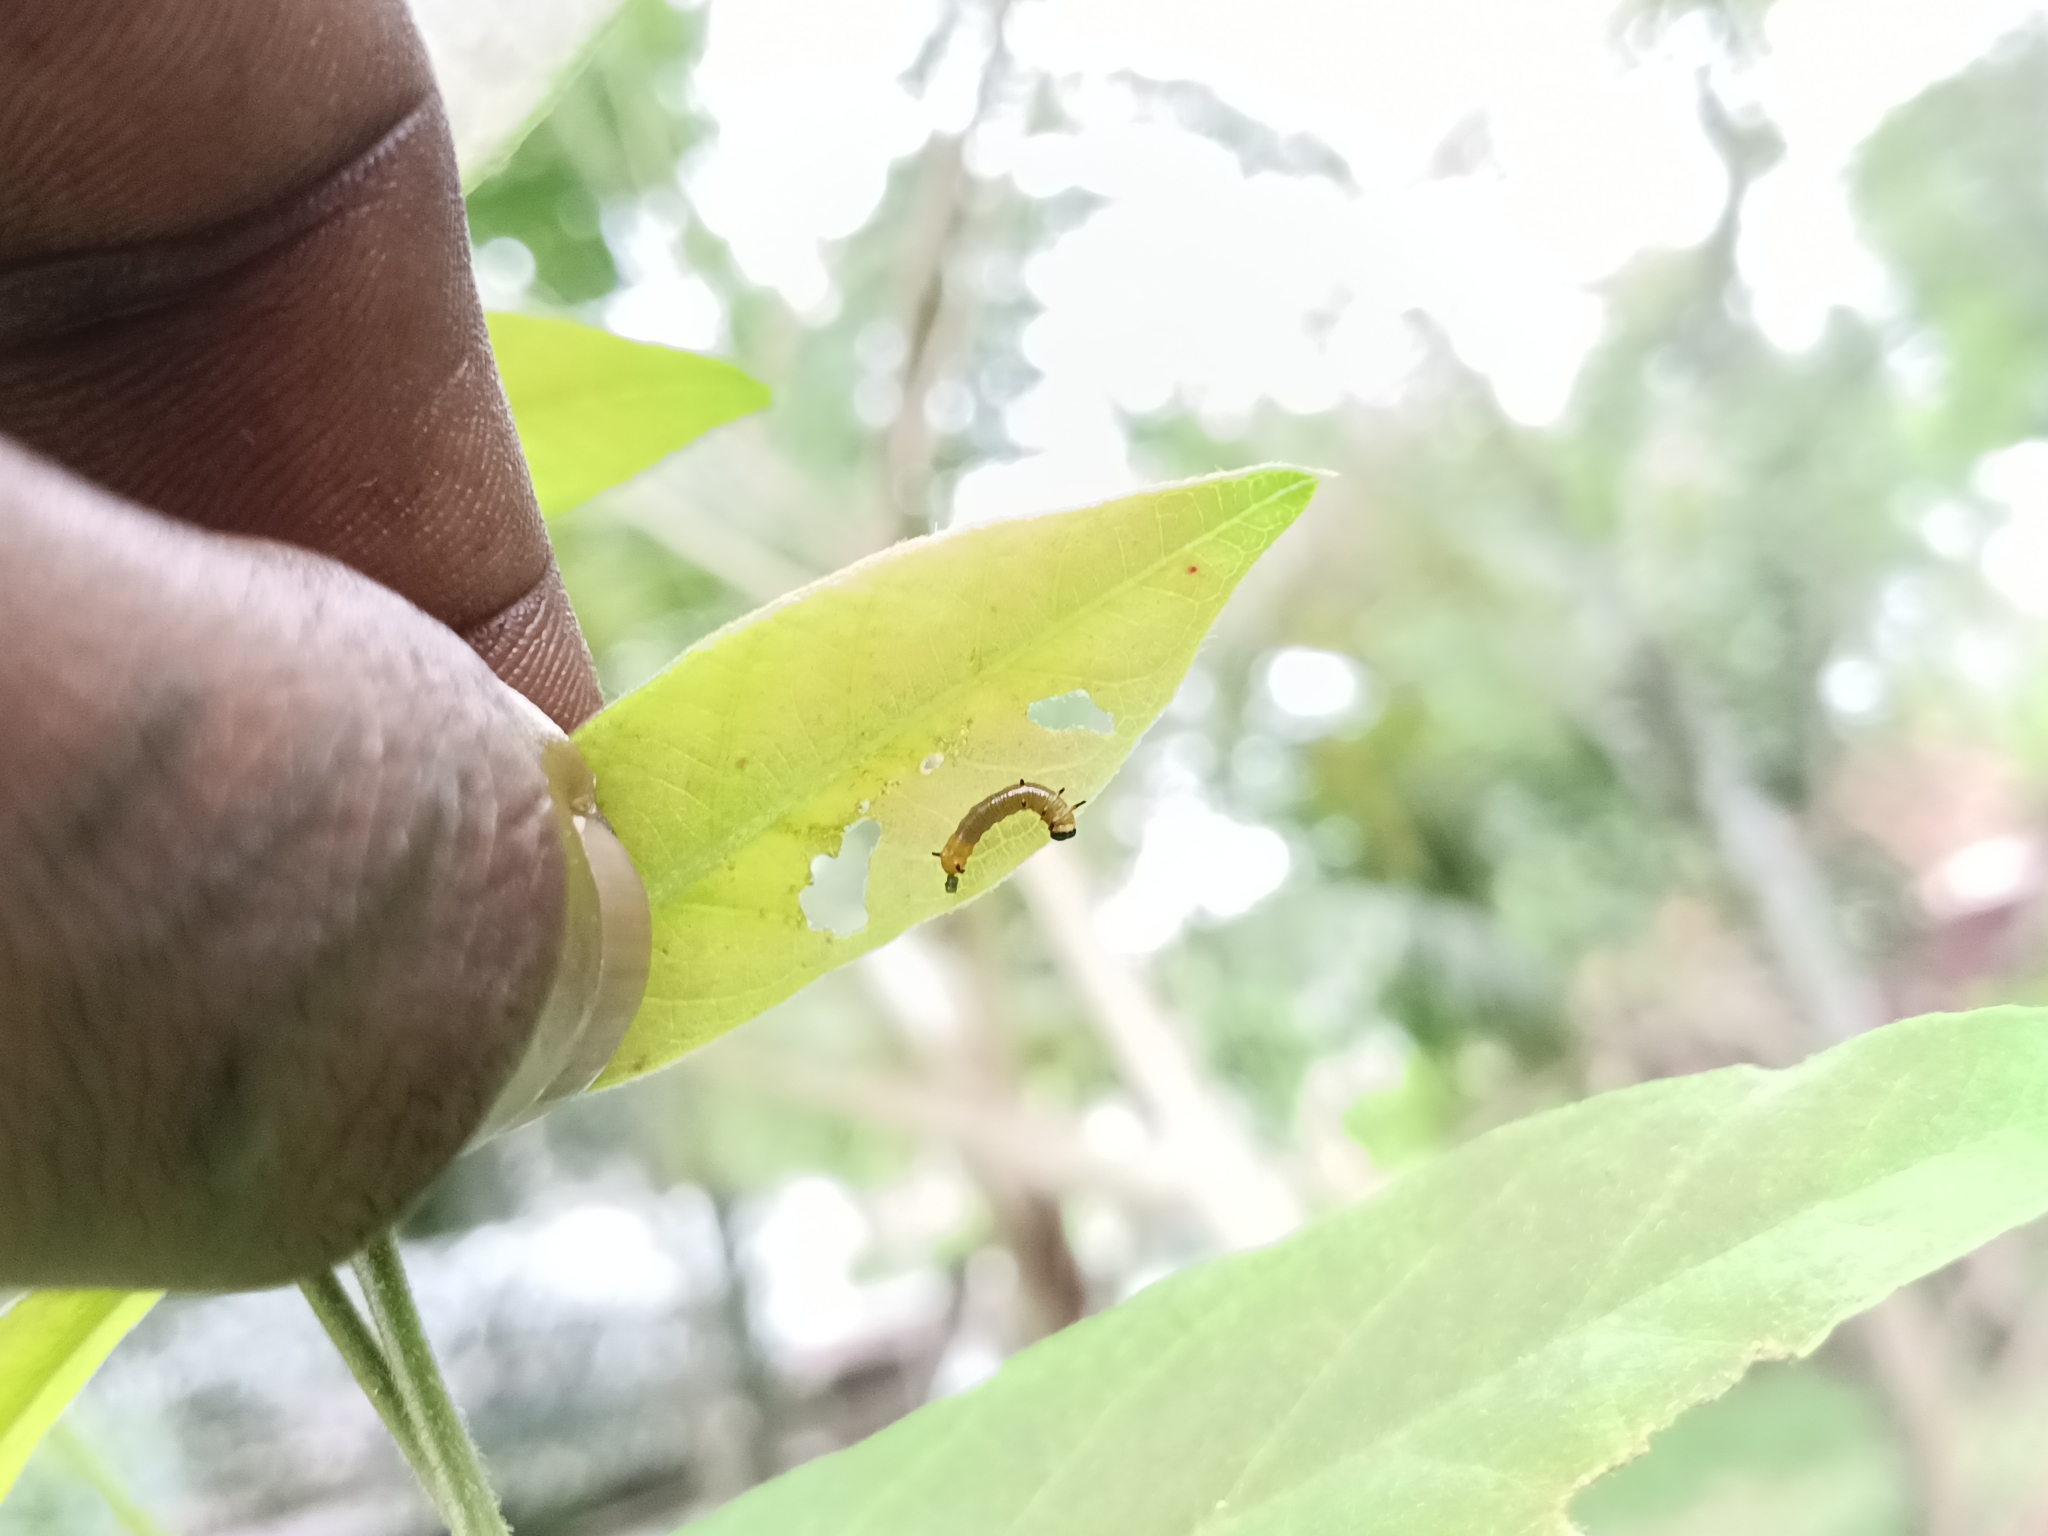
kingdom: Animalia
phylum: Arthropoda
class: Insecta
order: Lepidoptera
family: Nymphalidae
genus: Euploea
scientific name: Euploea core
